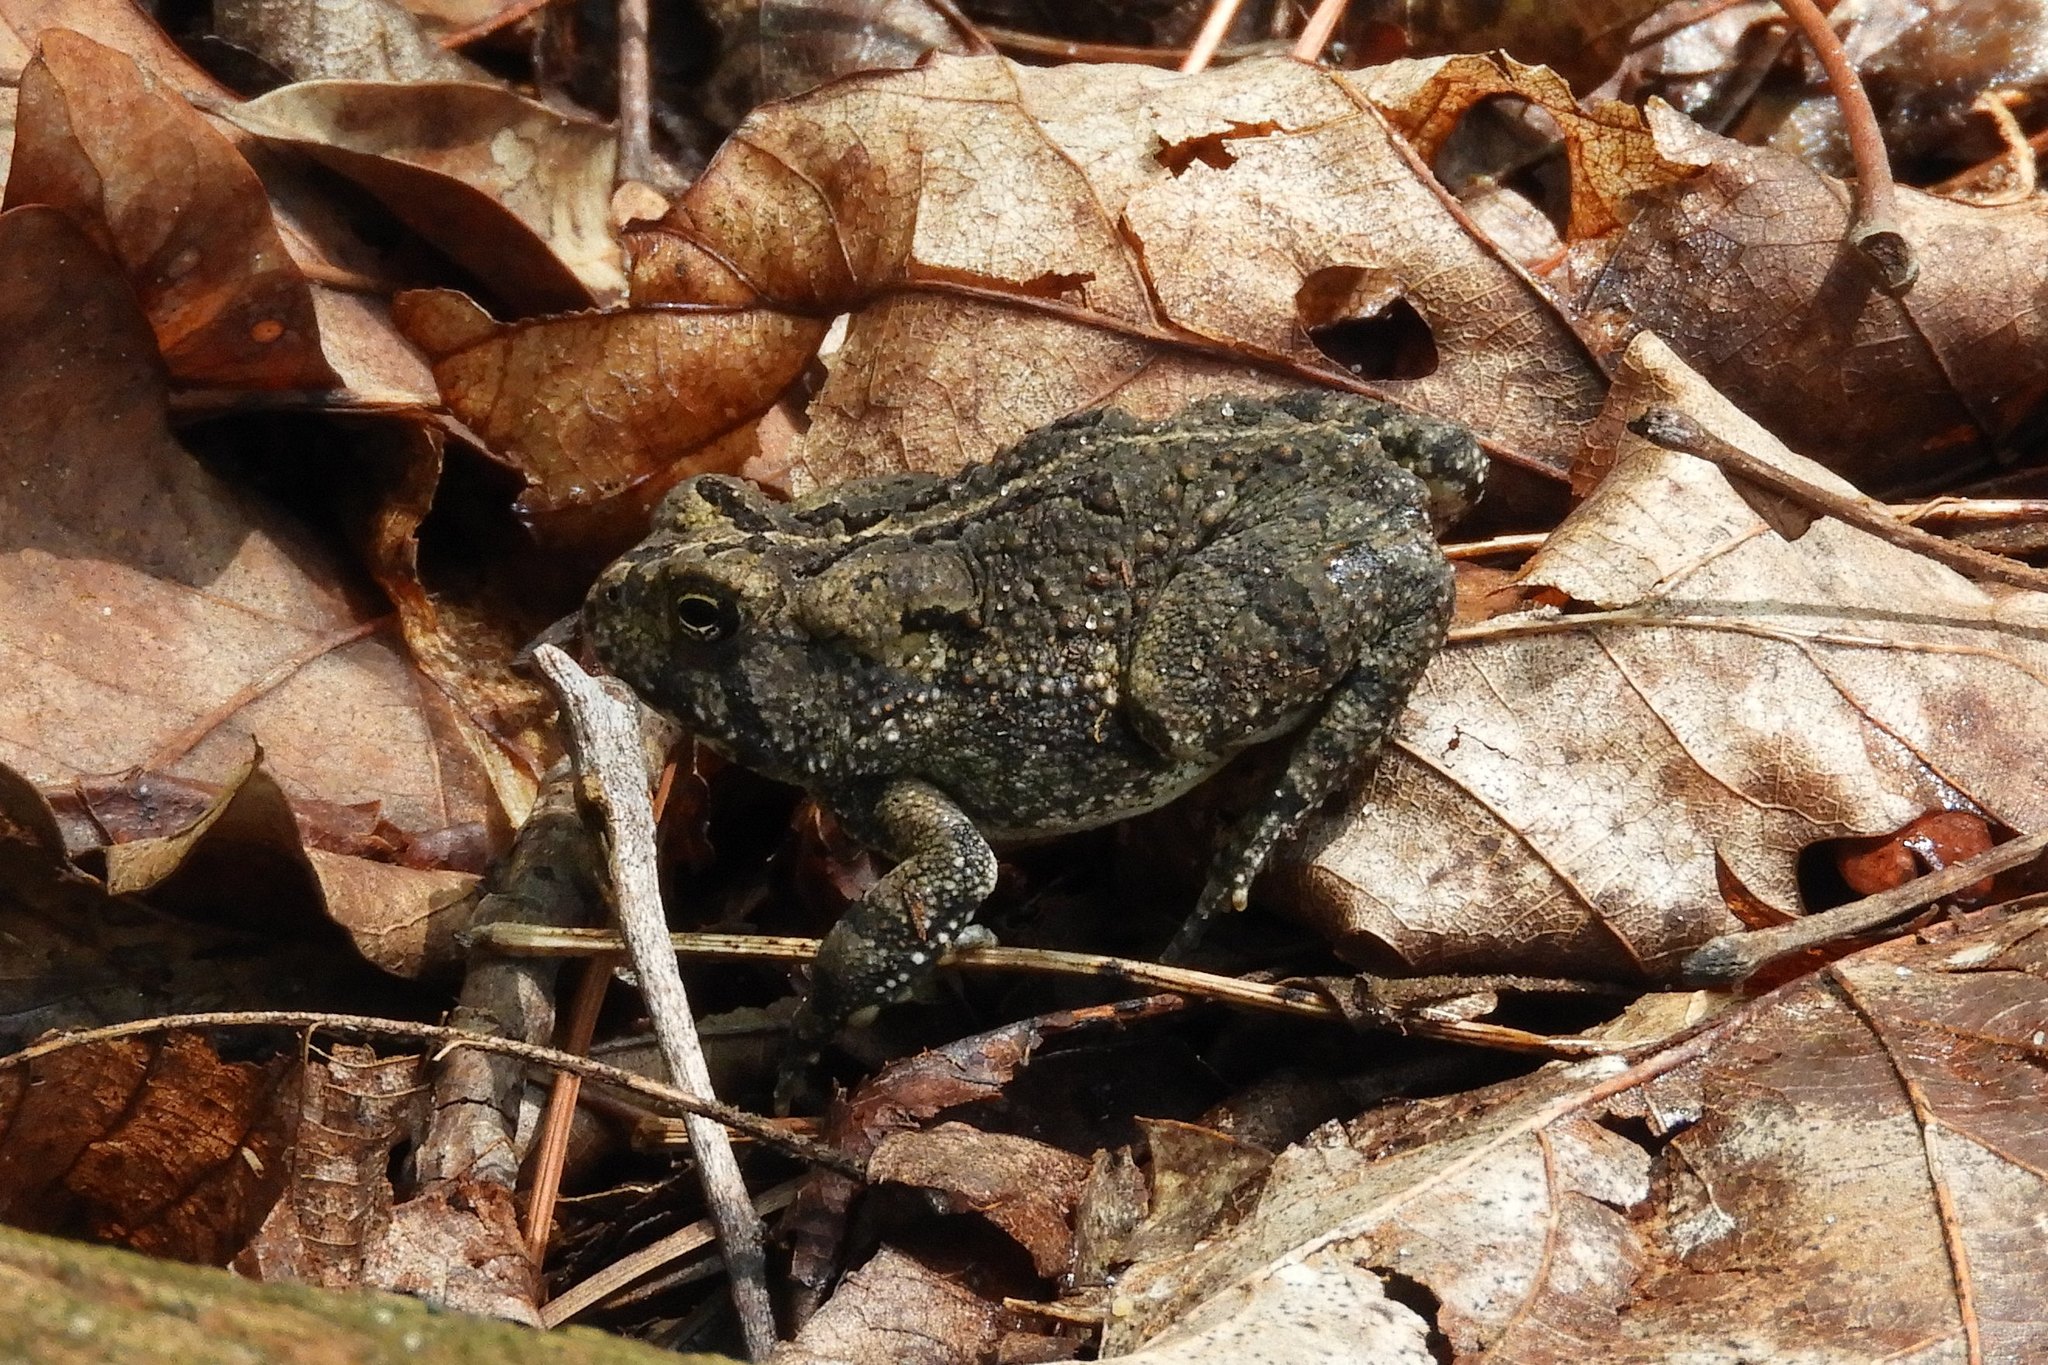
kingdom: Animalia
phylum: Chordata
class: Amphibia
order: Anura
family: Bufonidae
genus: Anaxyrus
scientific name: Anaxyrus fowleri
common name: Fowler's toad
